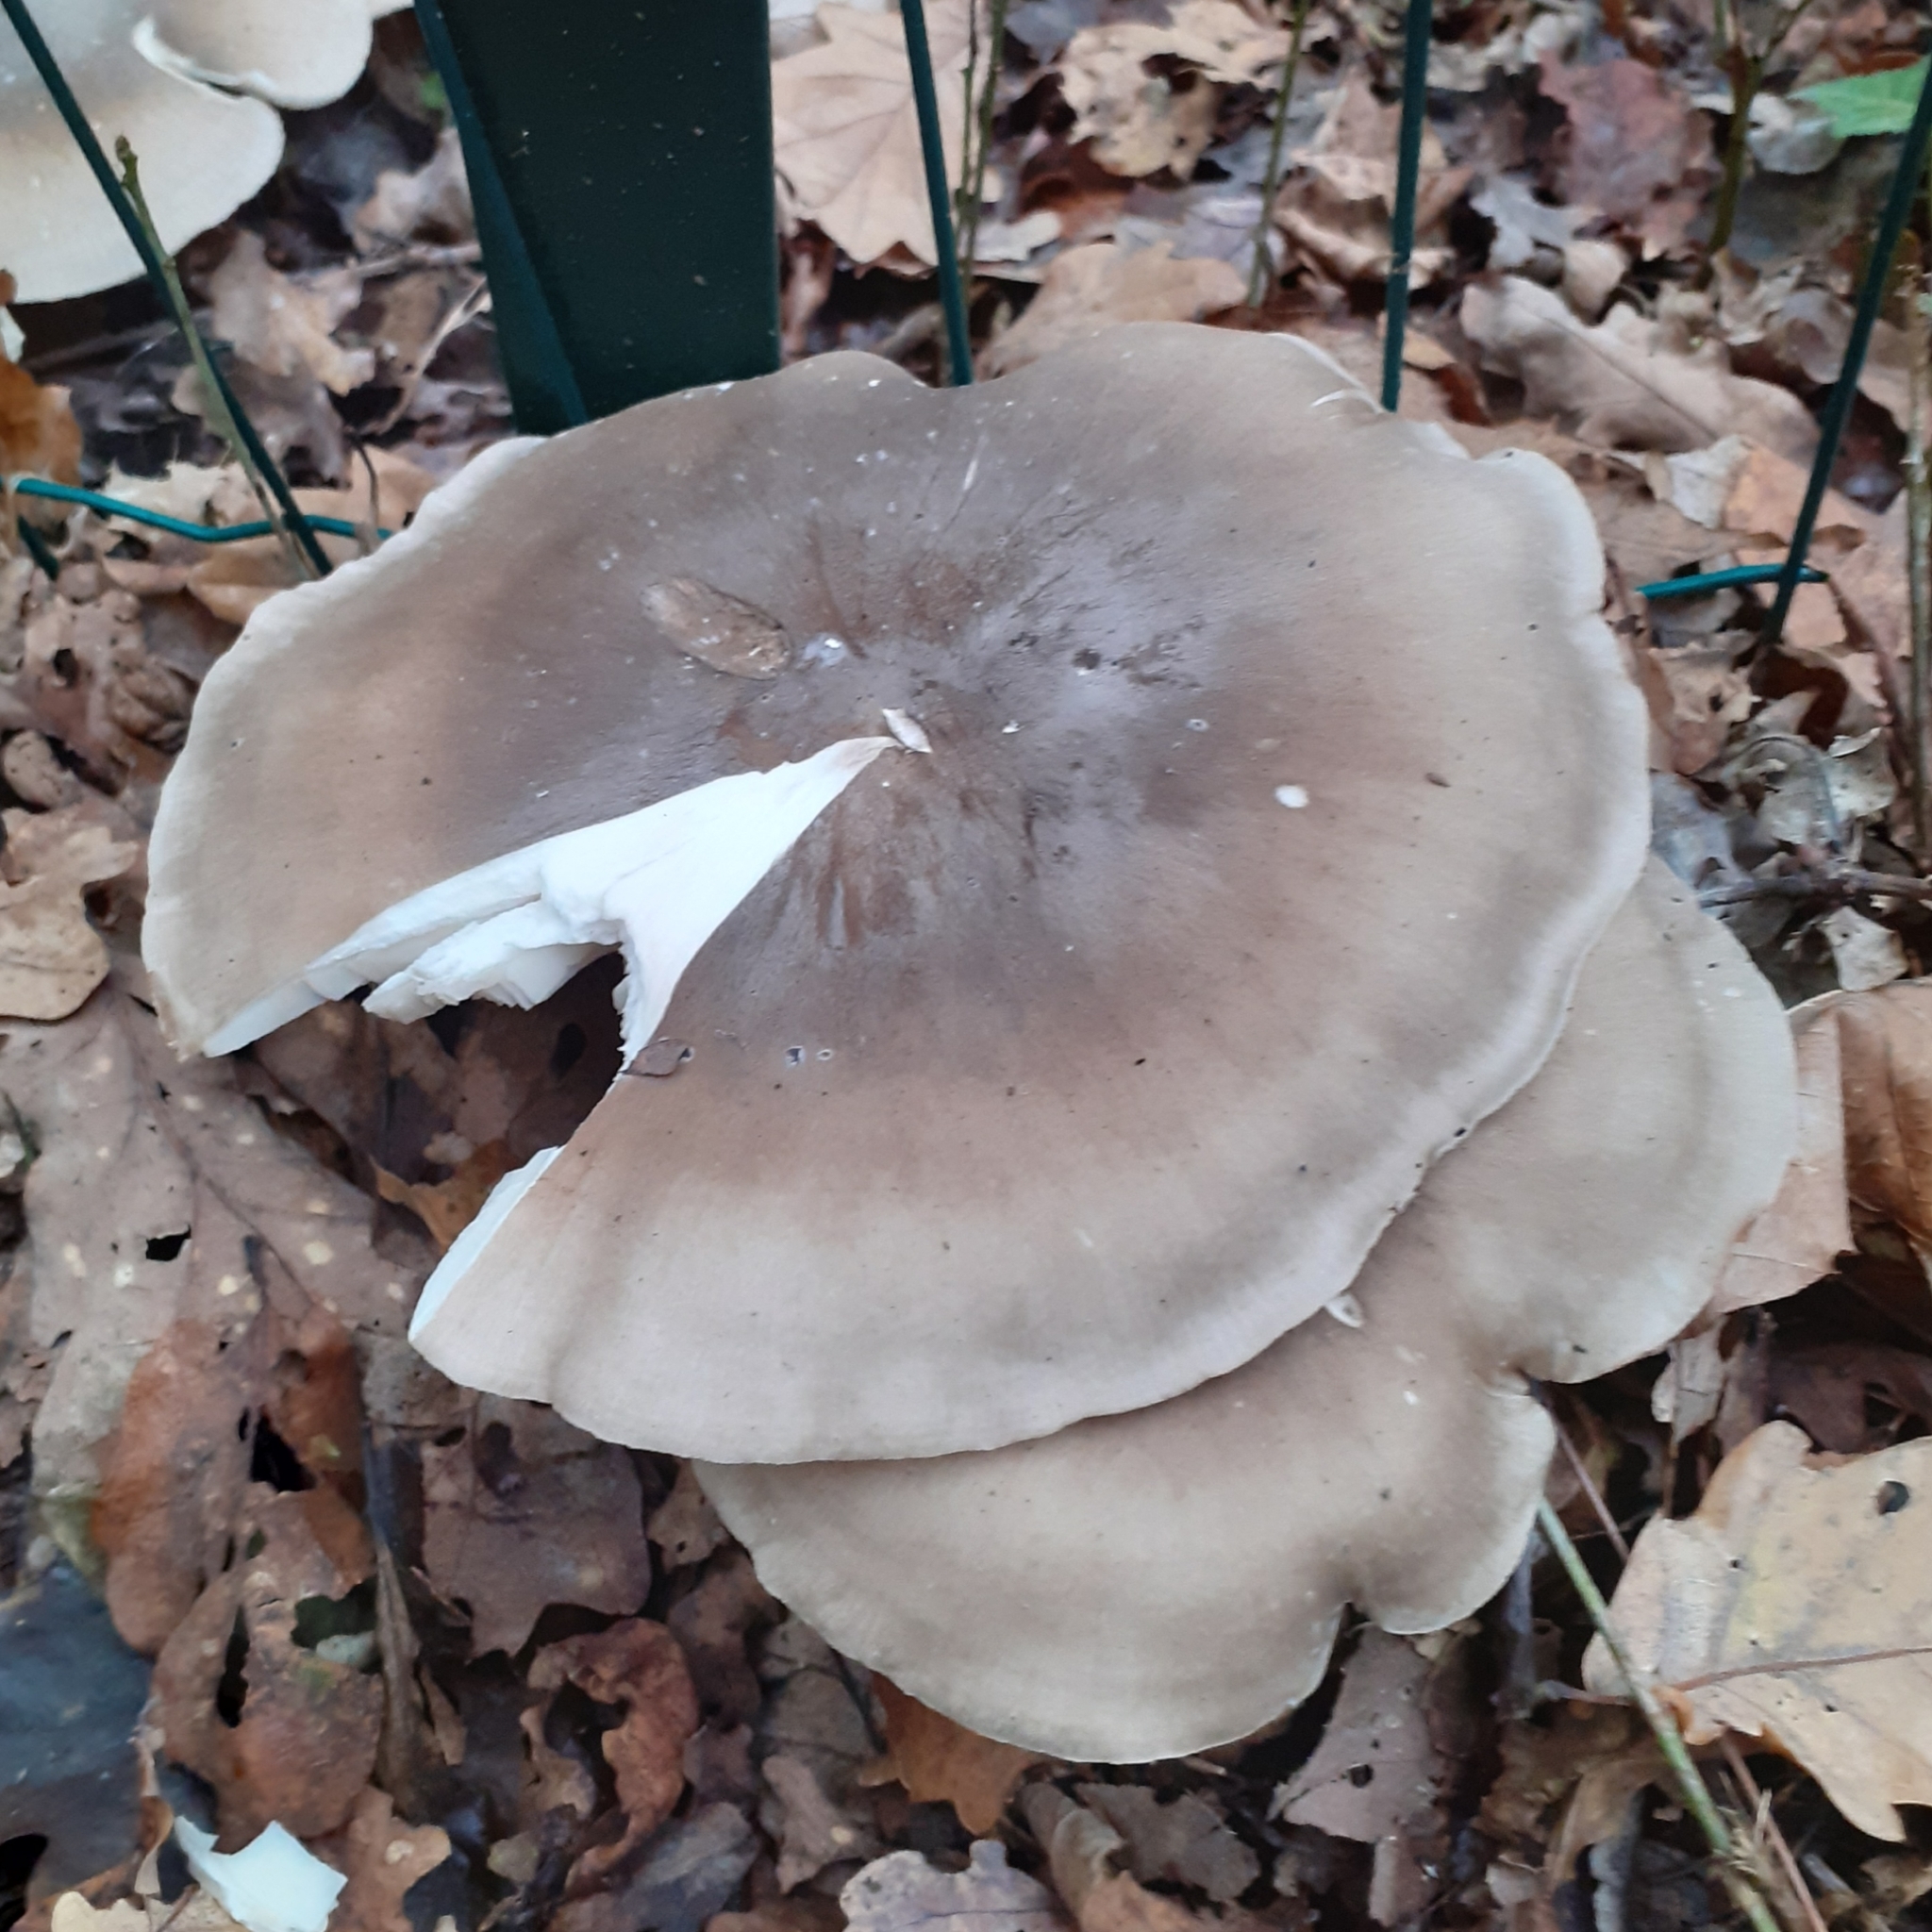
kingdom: Fungi
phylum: Basidiomycota
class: Agaricomycetes
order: Agaricales
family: Tricholomataceae
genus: Clitocybe
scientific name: Clitocybe nebularis
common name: Clouded agaric
